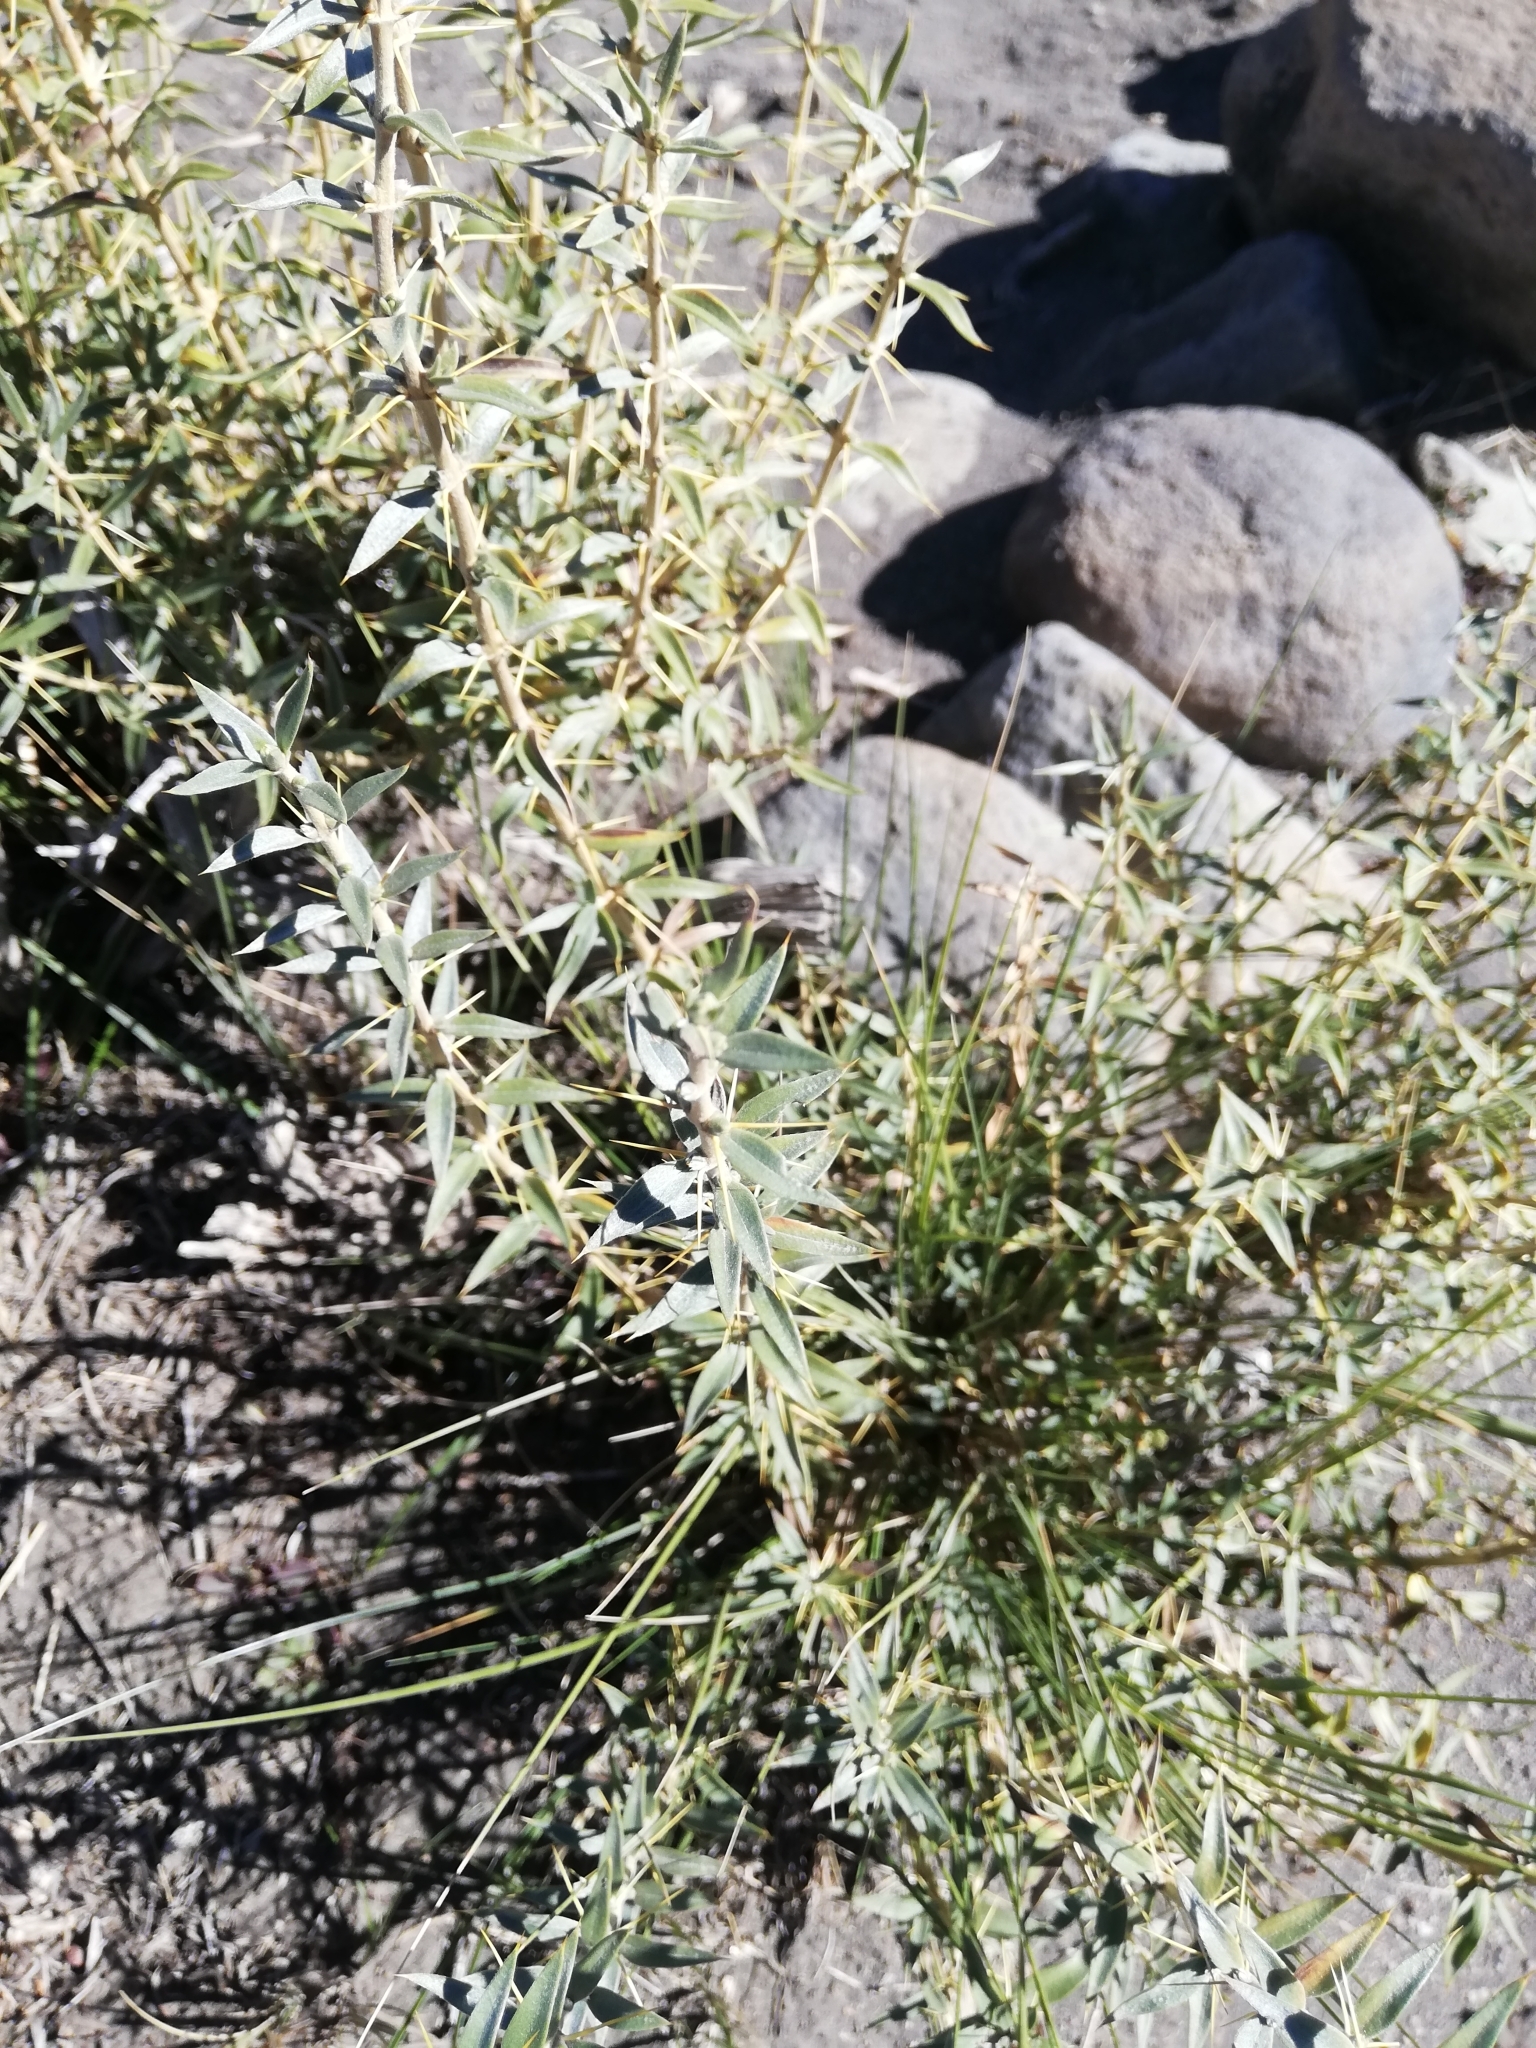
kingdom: Plantae
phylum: Tracheophyta
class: Magnoliopsida
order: Asterales
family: Asteraceae
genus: Chuquiraga
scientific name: Chuquiraga oppositifolia
